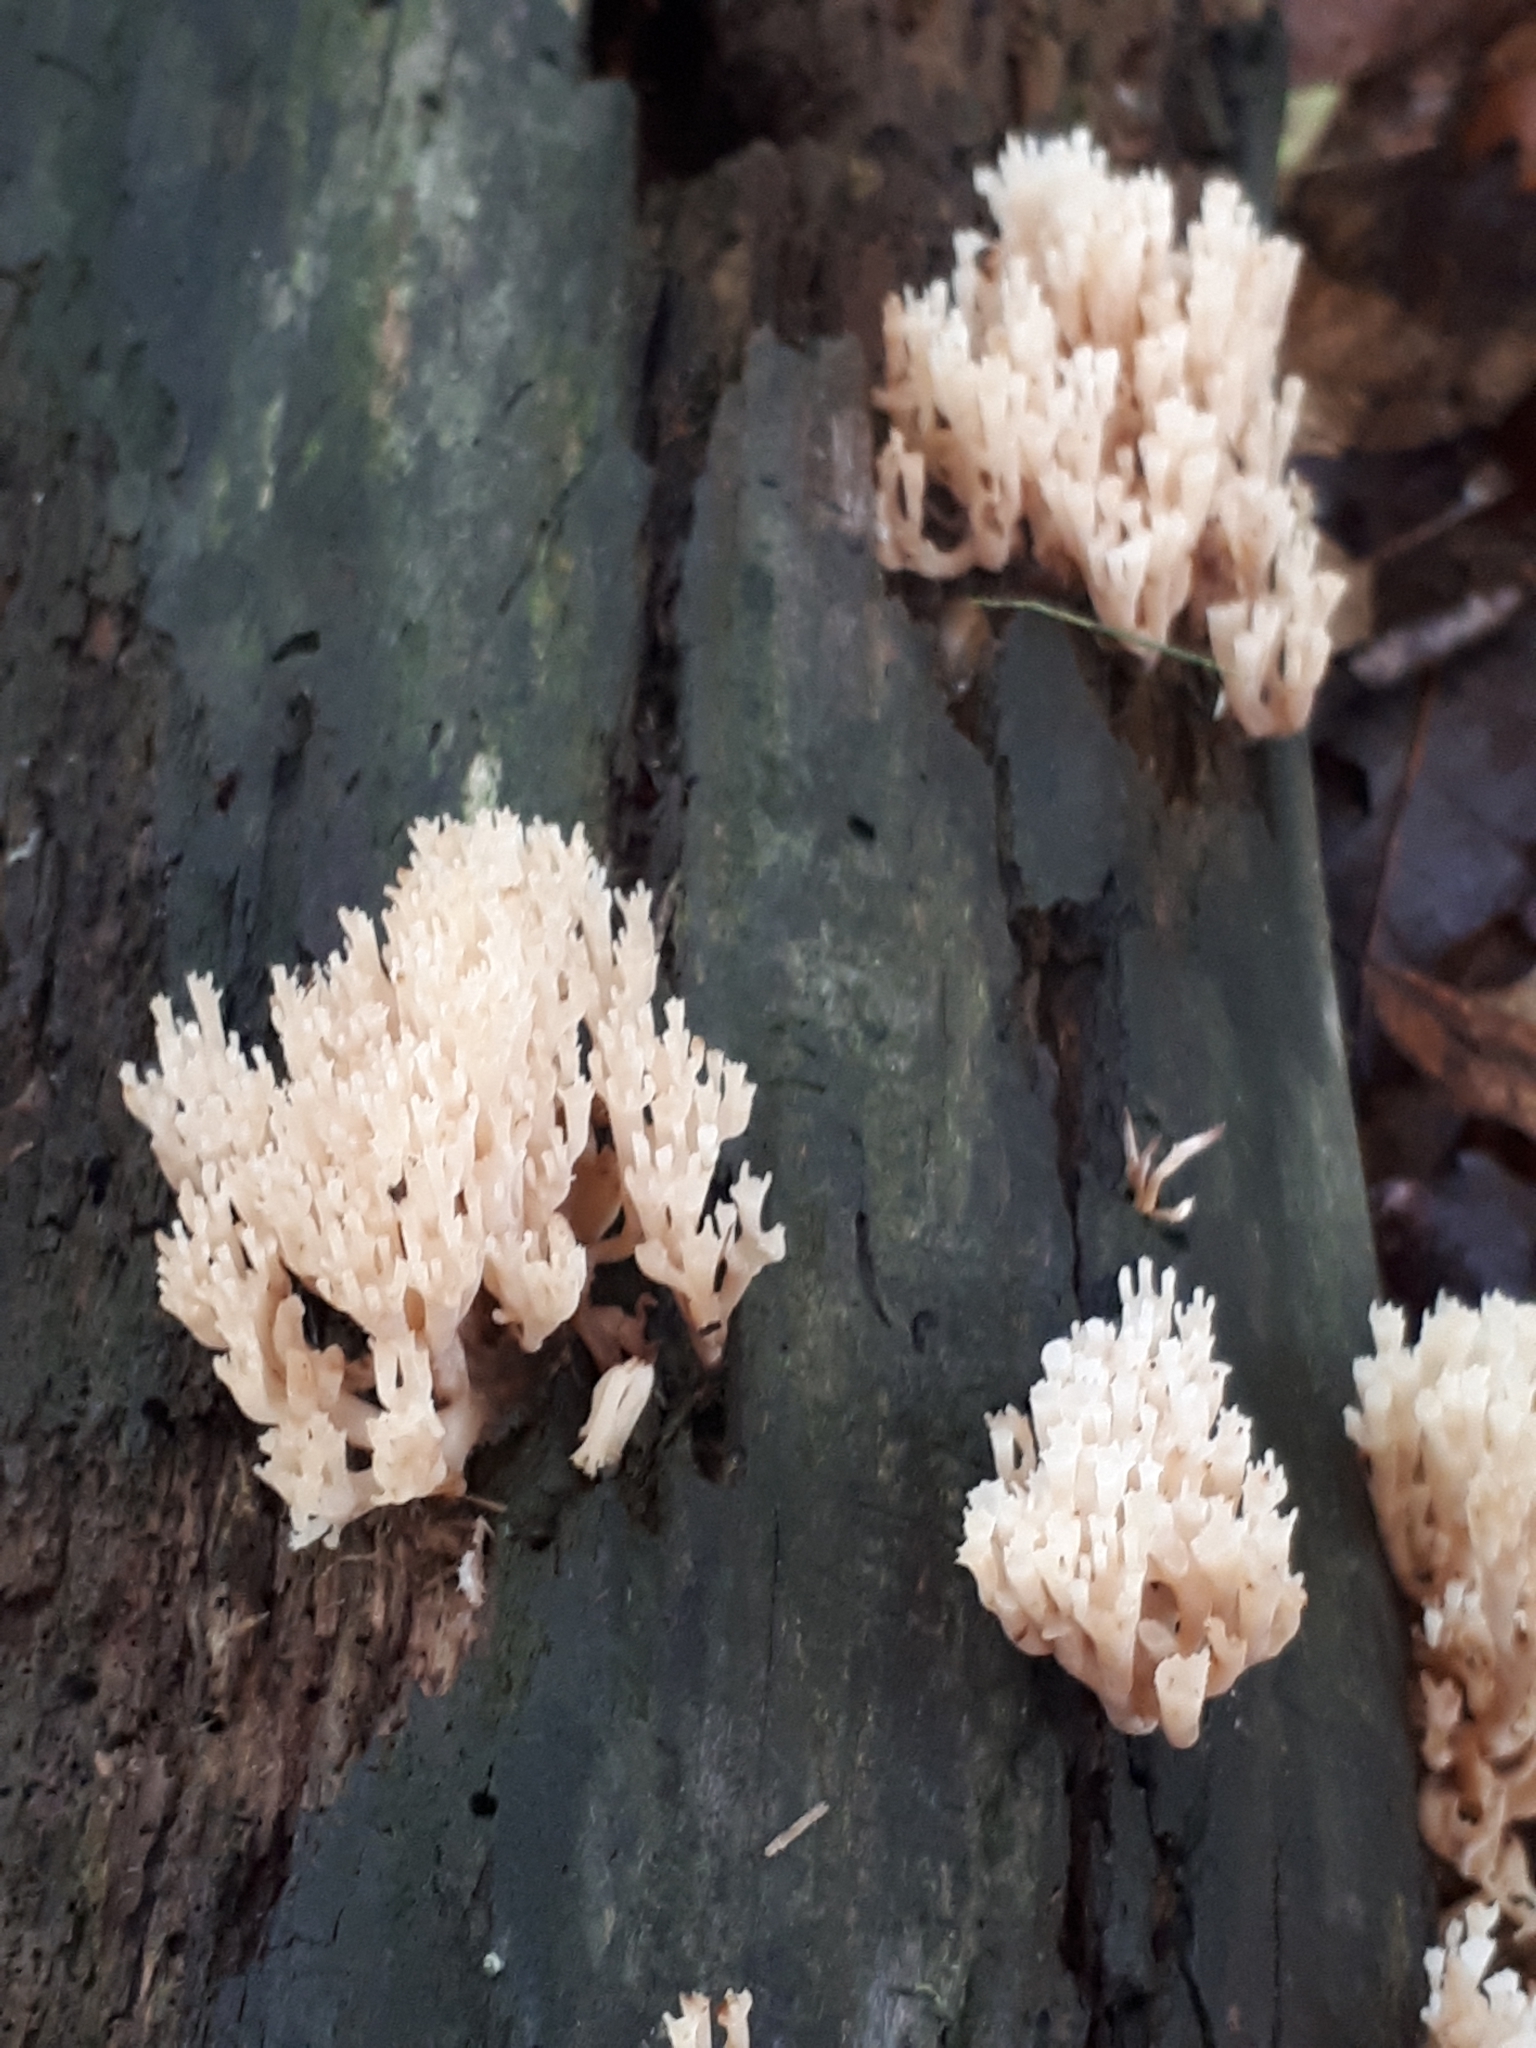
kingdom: Fungi
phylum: Basidiomycota
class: Agaricomycetes
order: Russulales
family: Auriscalpiaceae
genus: Artomyces
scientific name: Artomyces pyxidatus
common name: Crown-tipped coral fungus
